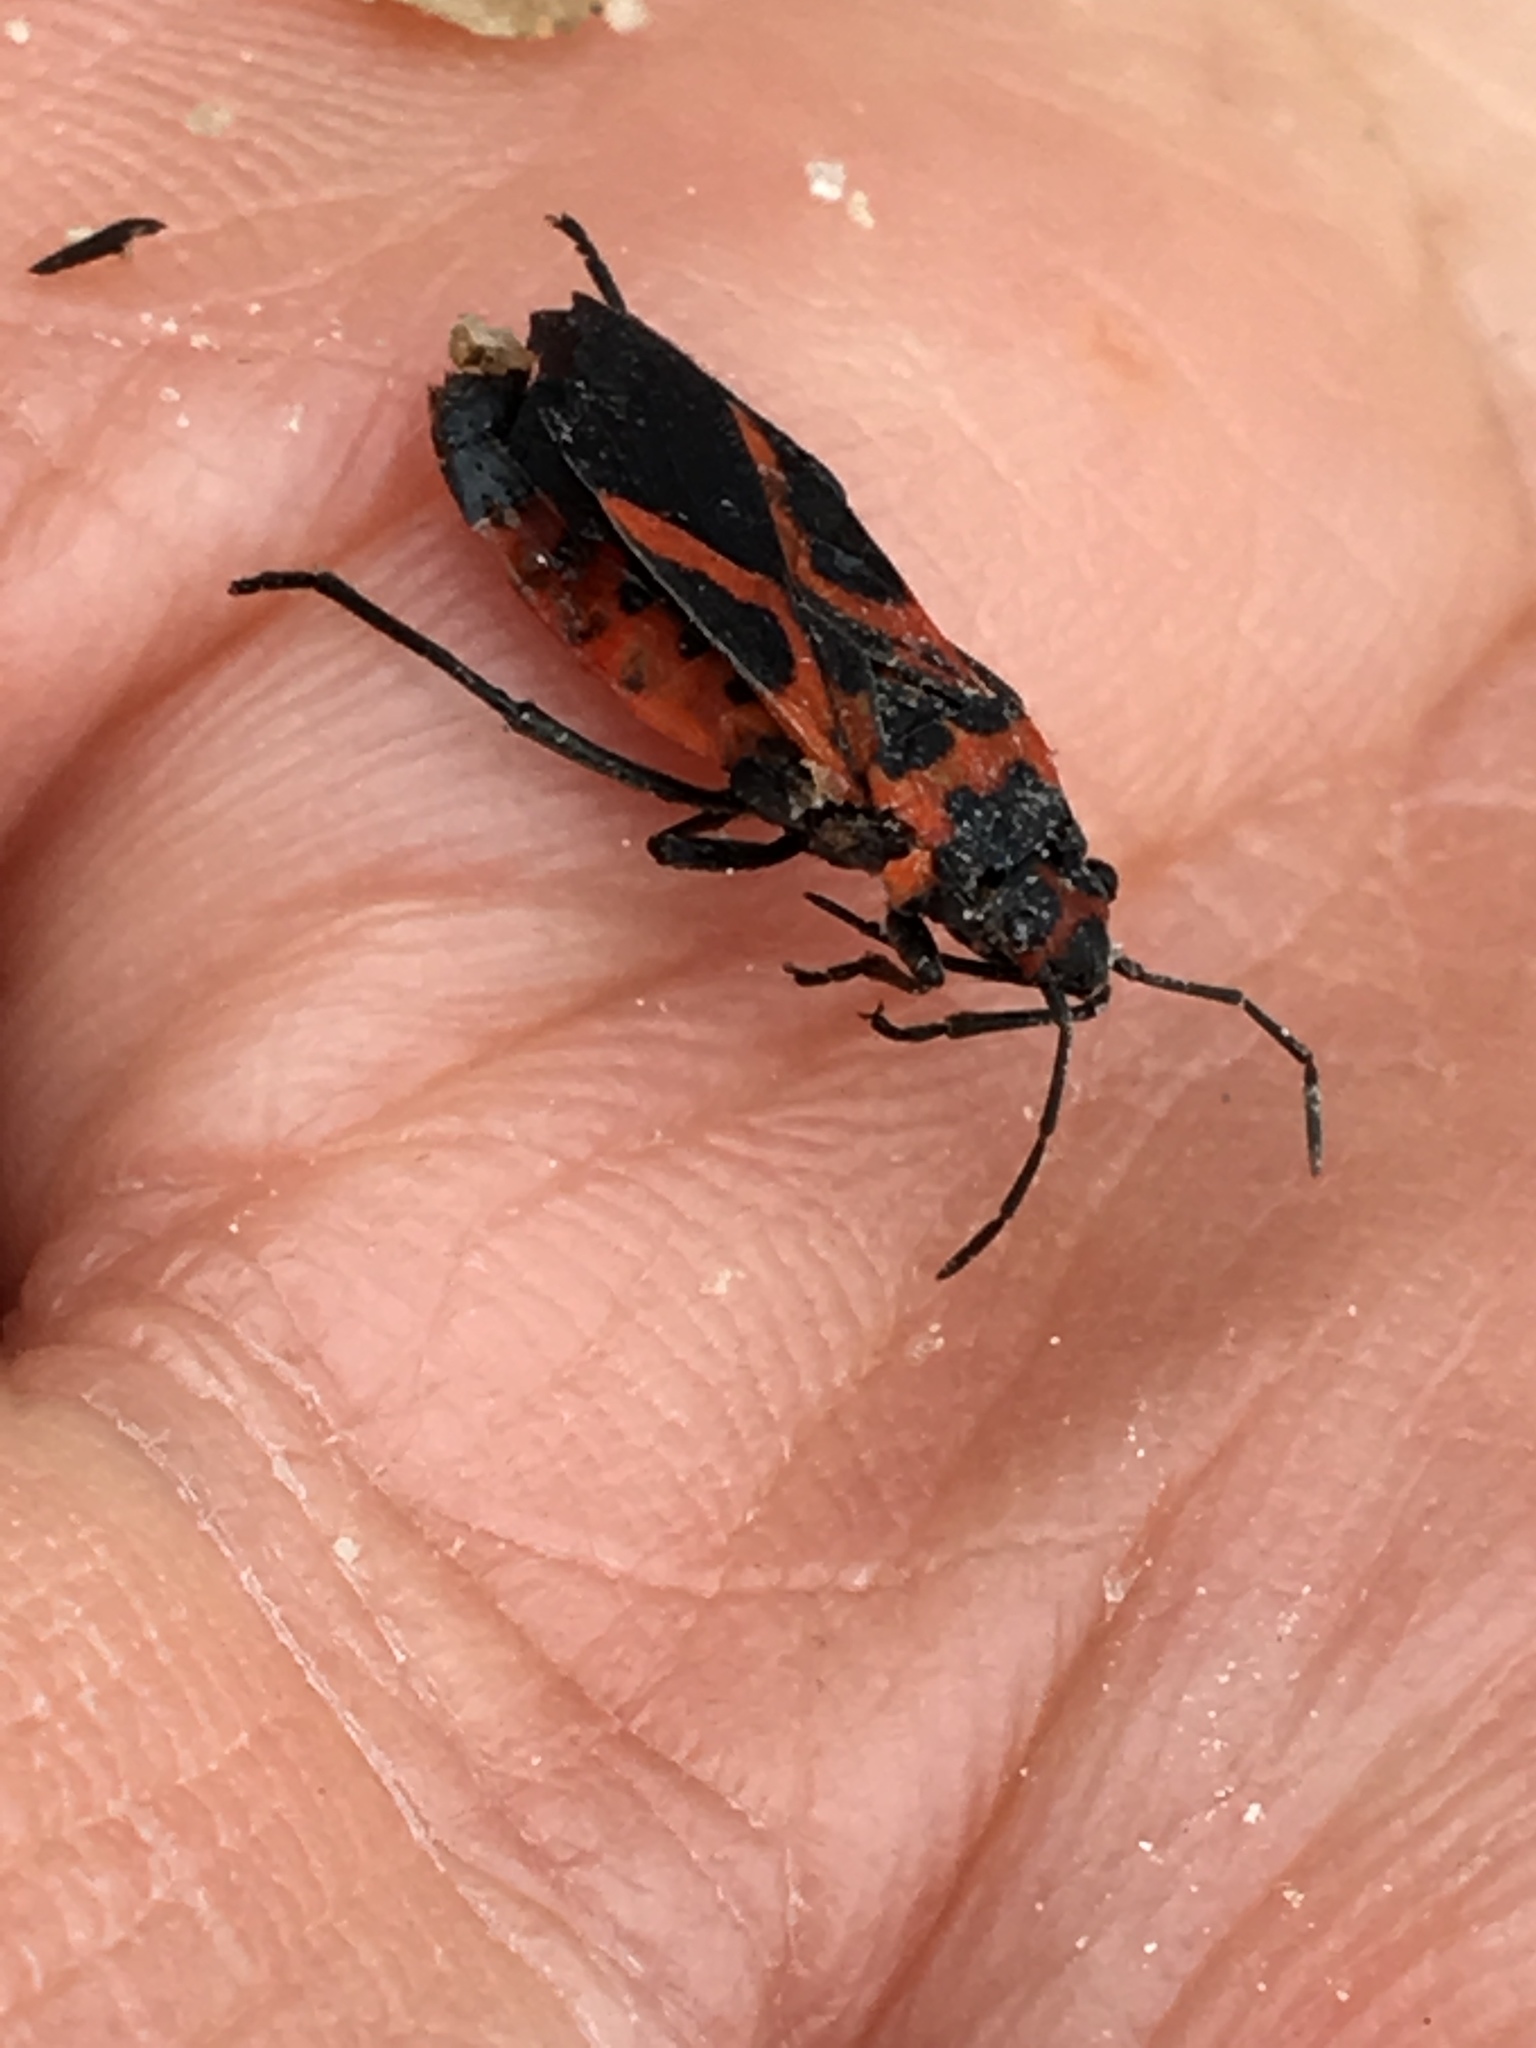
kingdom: Animalia
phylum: Arthropoda
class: Insecta
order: Hemiptera
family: Lygaeidae
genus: Lygaeus
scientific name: Lygaeus turcicus
